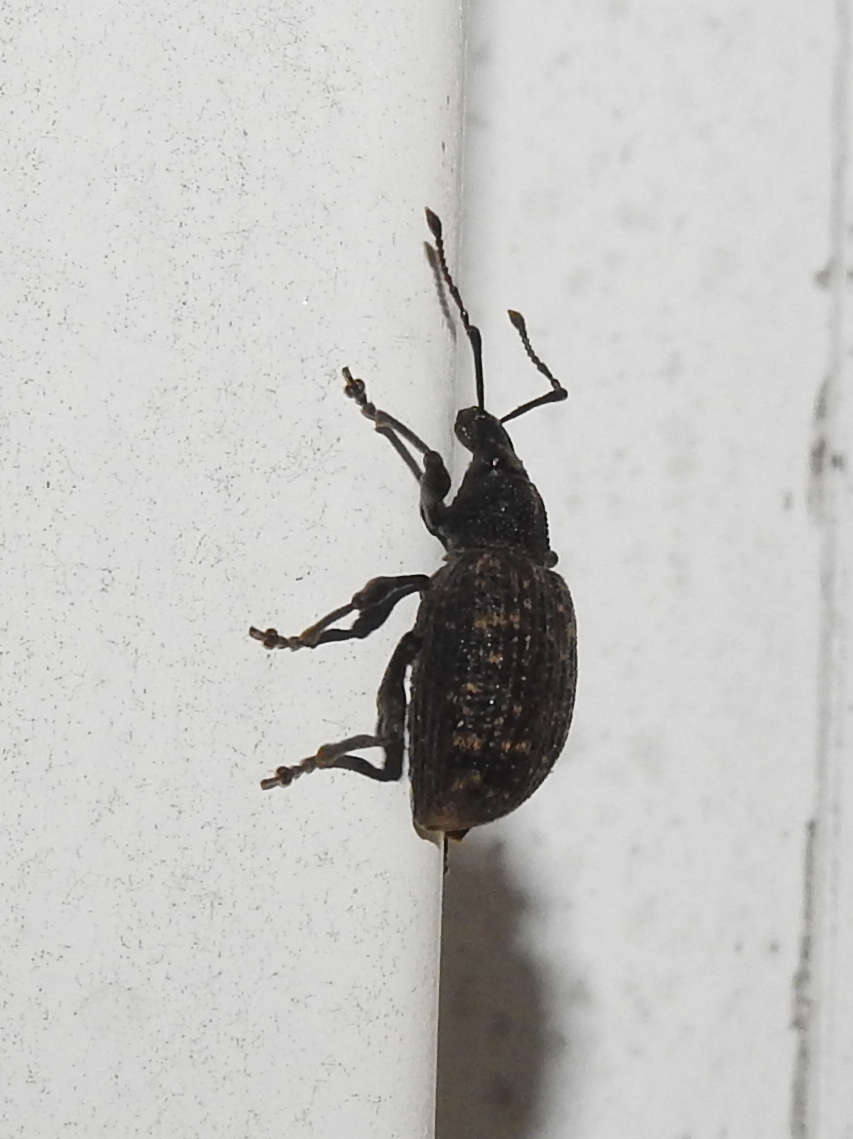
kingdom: Animalia
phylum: Arthropoda
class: Insecta
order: Coleoptera
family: Curculionidae
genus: Otiorhynchus
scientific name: Otiorhynchus sulcatus
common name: Black vine weevil
